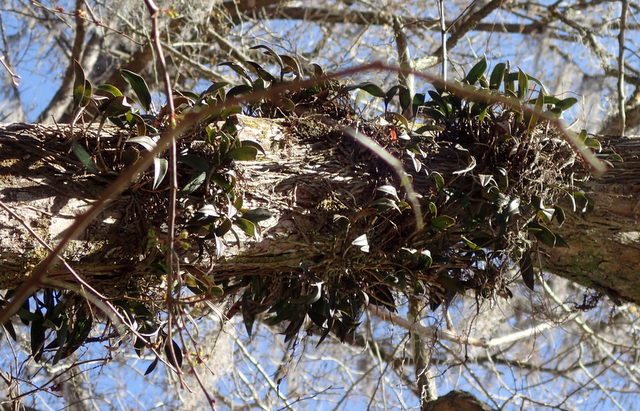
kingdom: Plantae
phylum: Tracheophyta
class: Liliopsida
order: Asparagales
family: Orchidaceae
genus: Epidendrum
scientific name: Epidendrum conopseum
